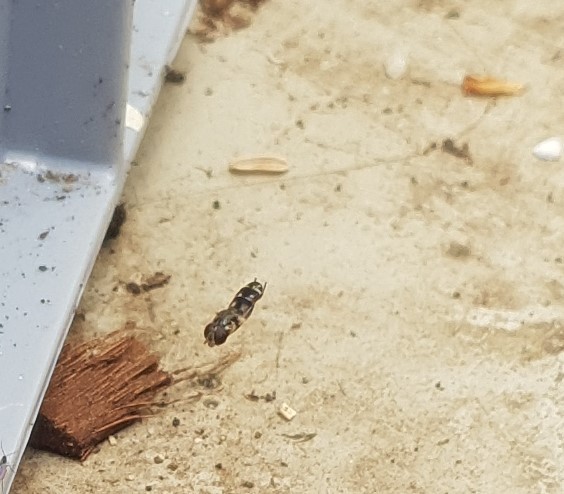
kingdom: Animalia
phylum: Arthropoda
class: Insecta
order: Diptera
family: Syrphidae
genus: Syritta
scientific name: Syritta pipiens
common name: Hover fly
